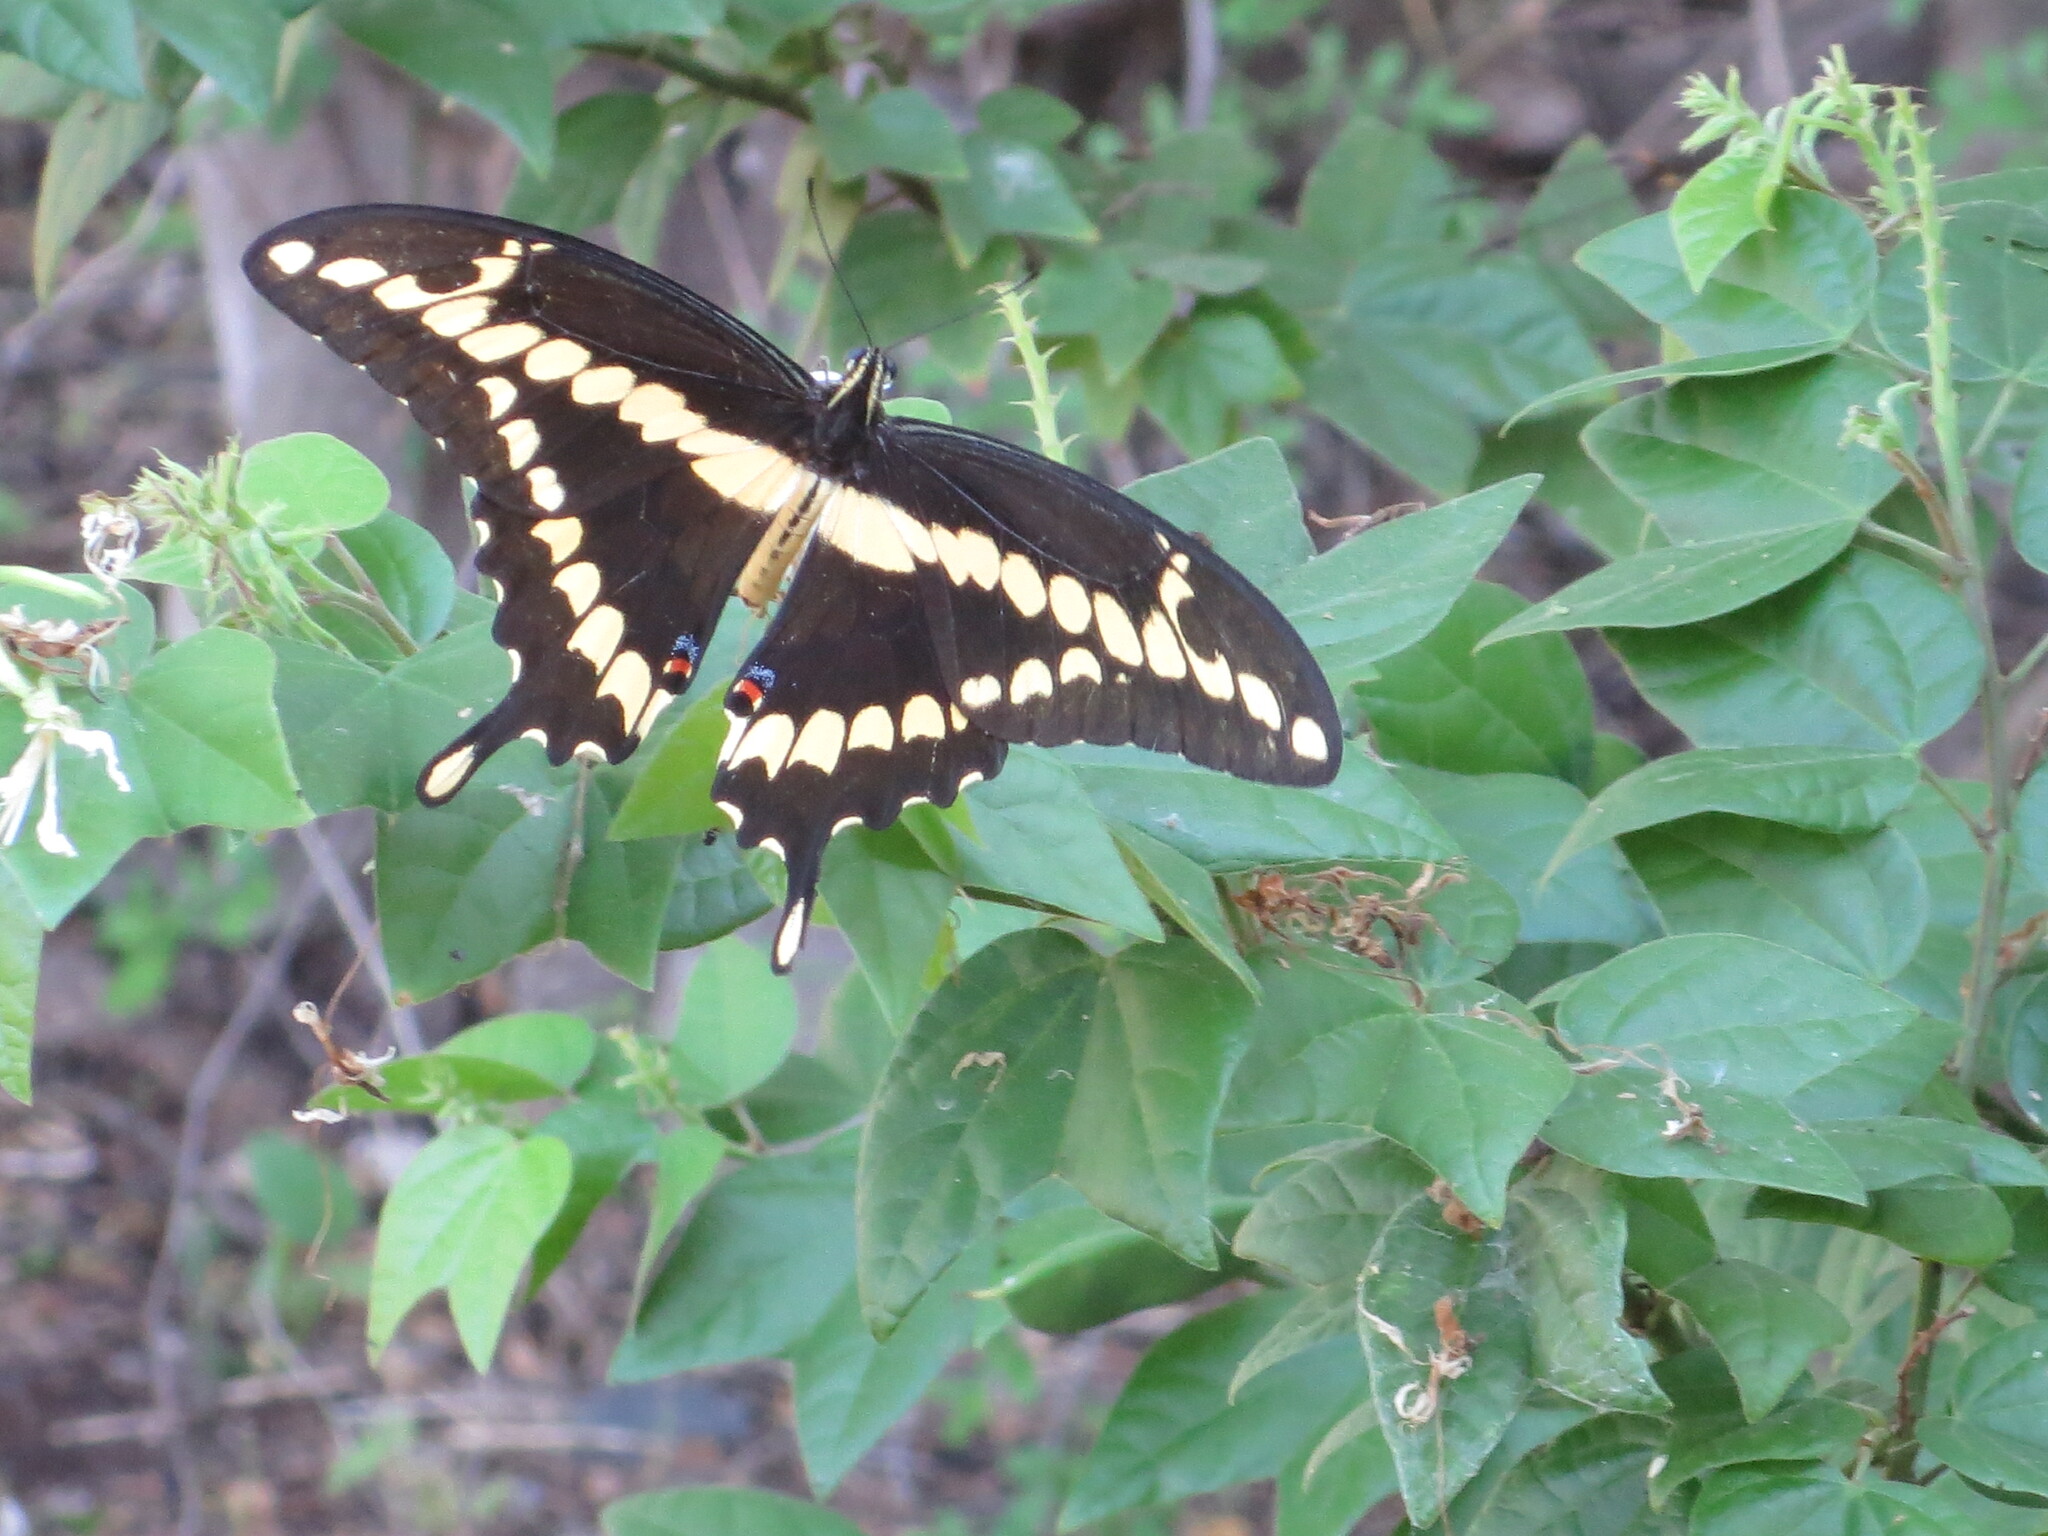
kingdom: Animalia
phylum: Arthropoda
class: Insecta
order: Lepidoptera
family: Papilionidae
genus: Papilio
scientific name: Papilio rumiko
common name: Western giant swallowtail
